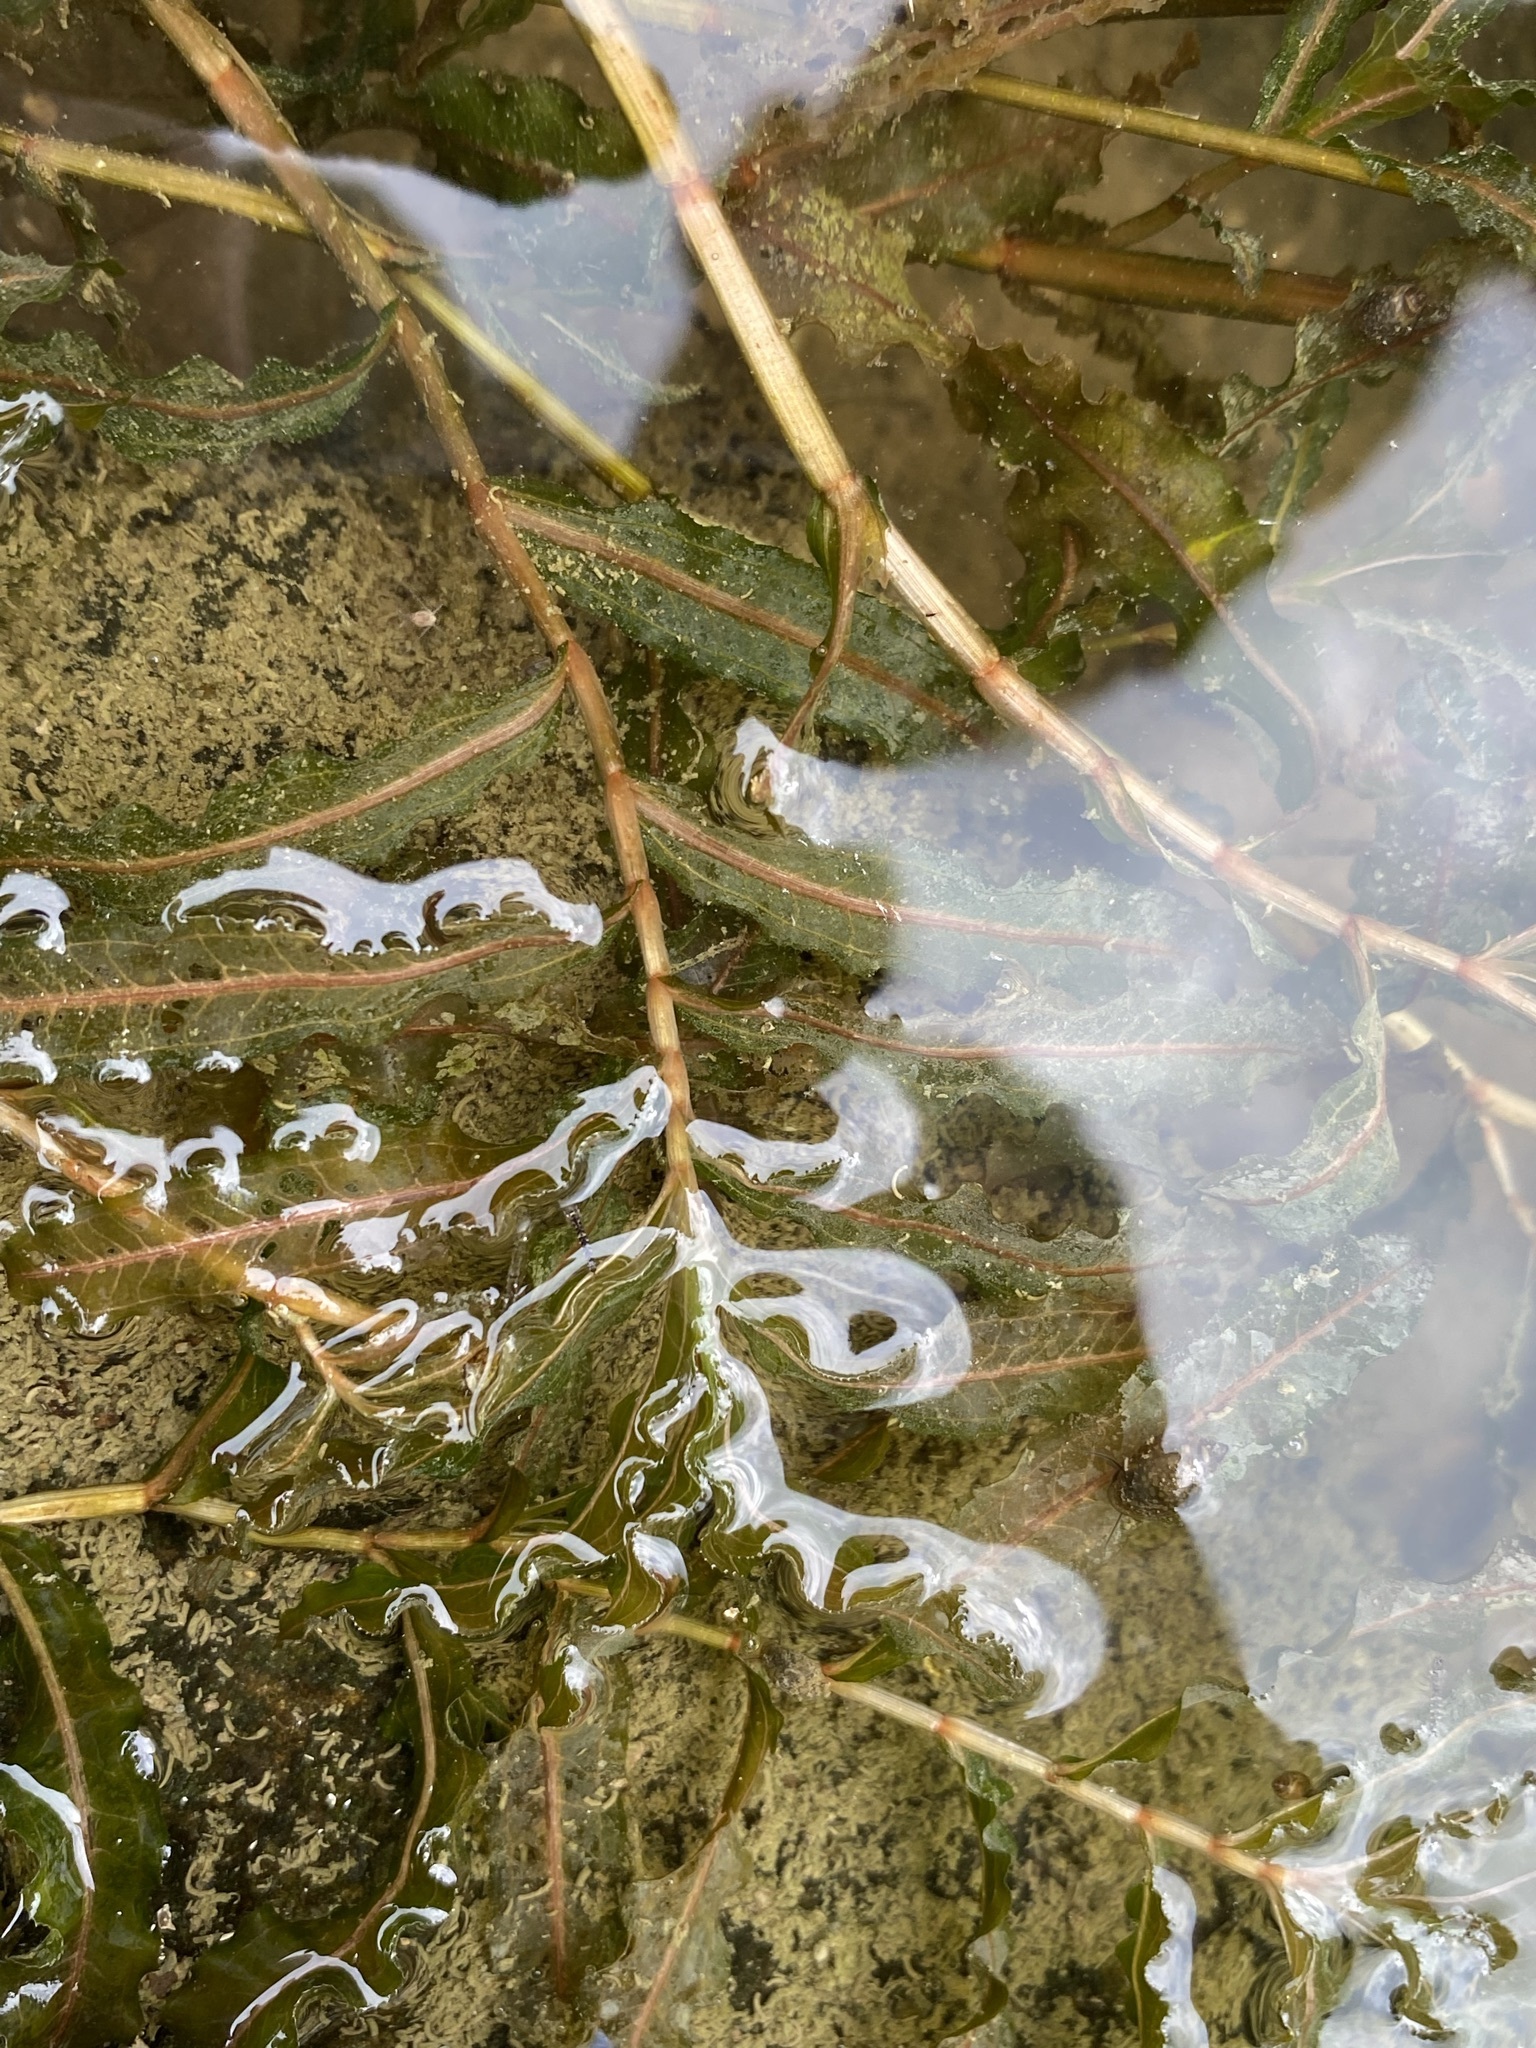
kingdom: Plantae
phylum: Tracheophyta
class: Liliopsida
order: Alismatales
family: Potamogetonaceae
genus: Potamogeton
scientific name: Potamogeton crispus
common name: Curled pondweed
